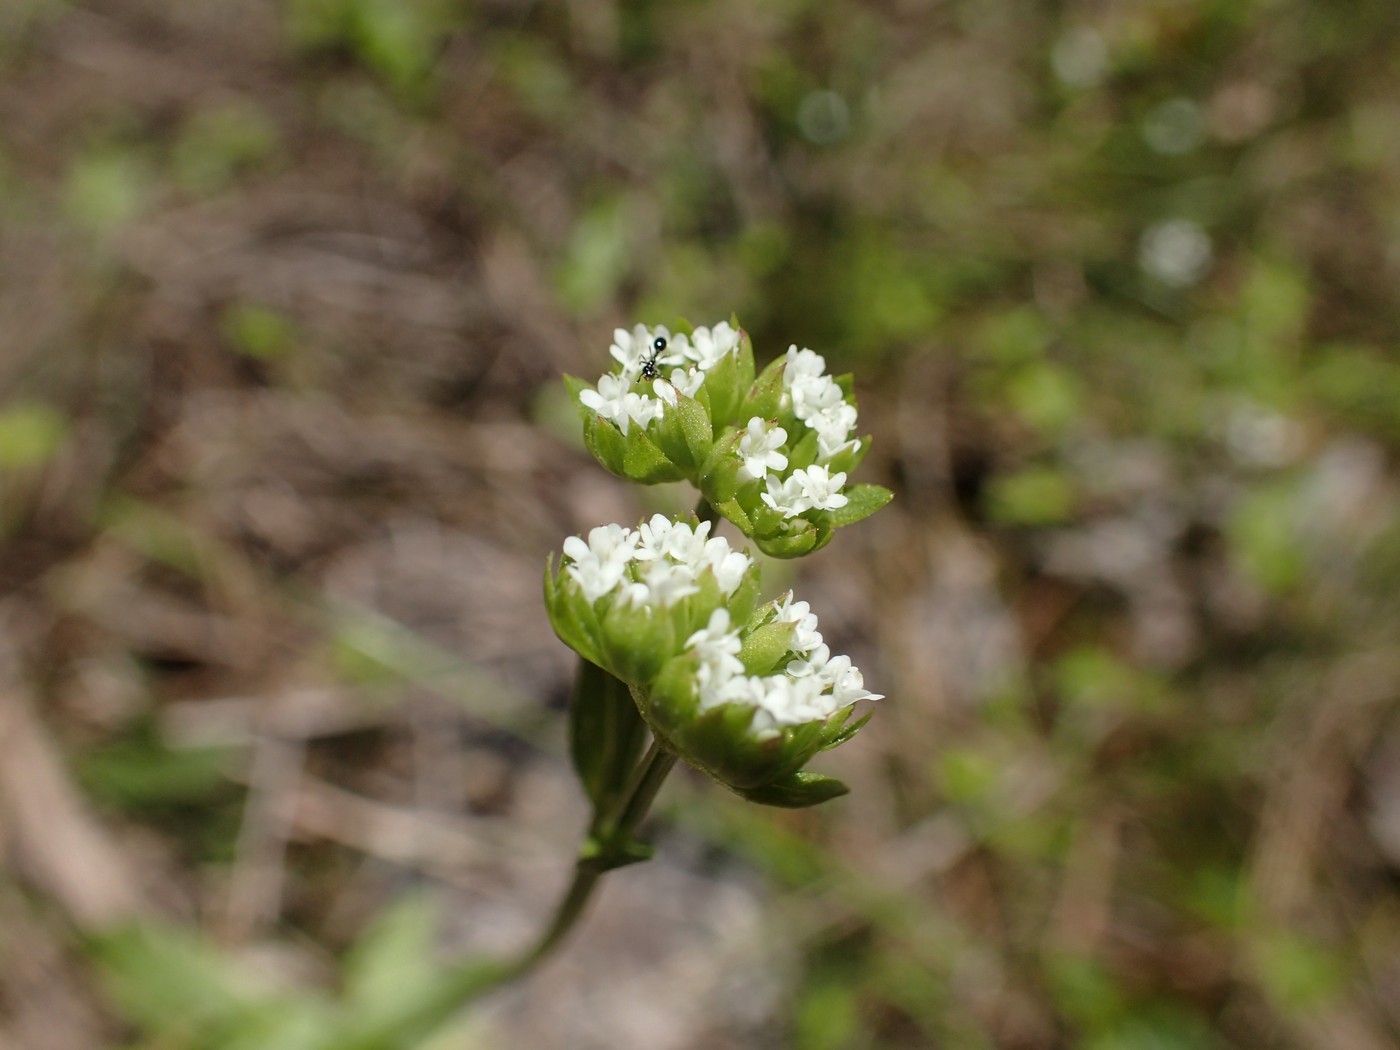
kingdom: Plantae
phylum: Tracheophyta
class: Magnoliopsida
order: Dipsacales
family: Caprifoliaceae
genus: Valerianella
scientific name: Valerianella radiata
